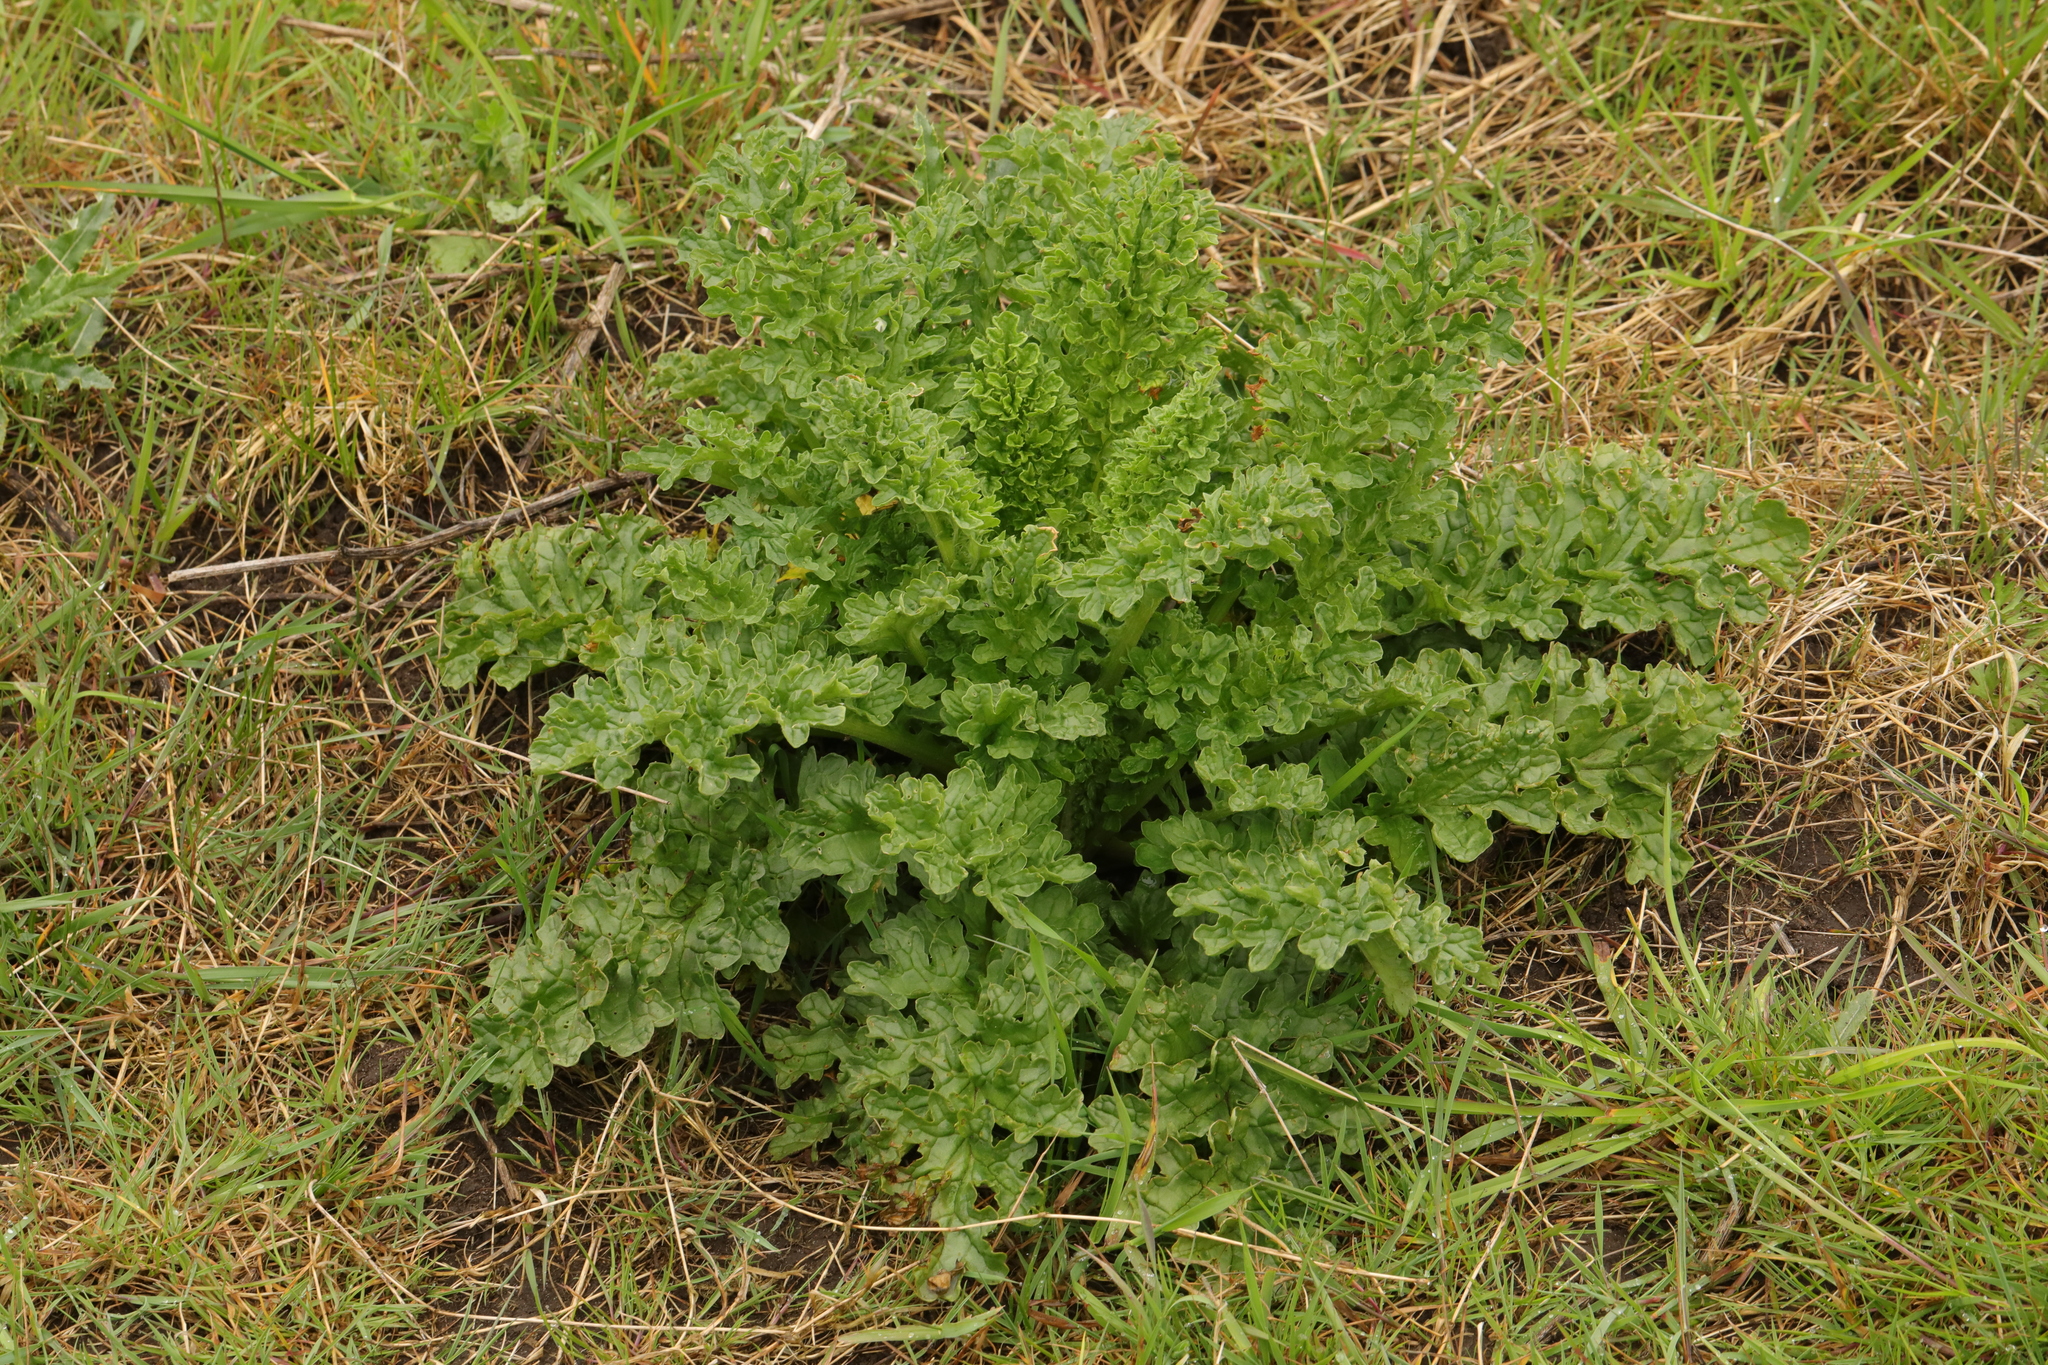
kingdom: Plantae
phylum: Tracheophyta
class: Magnoliopsida
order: Asterales
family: Asteraceae
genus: Jacobaea
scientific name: Jacobaea vulgaris
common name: Stinking willie
